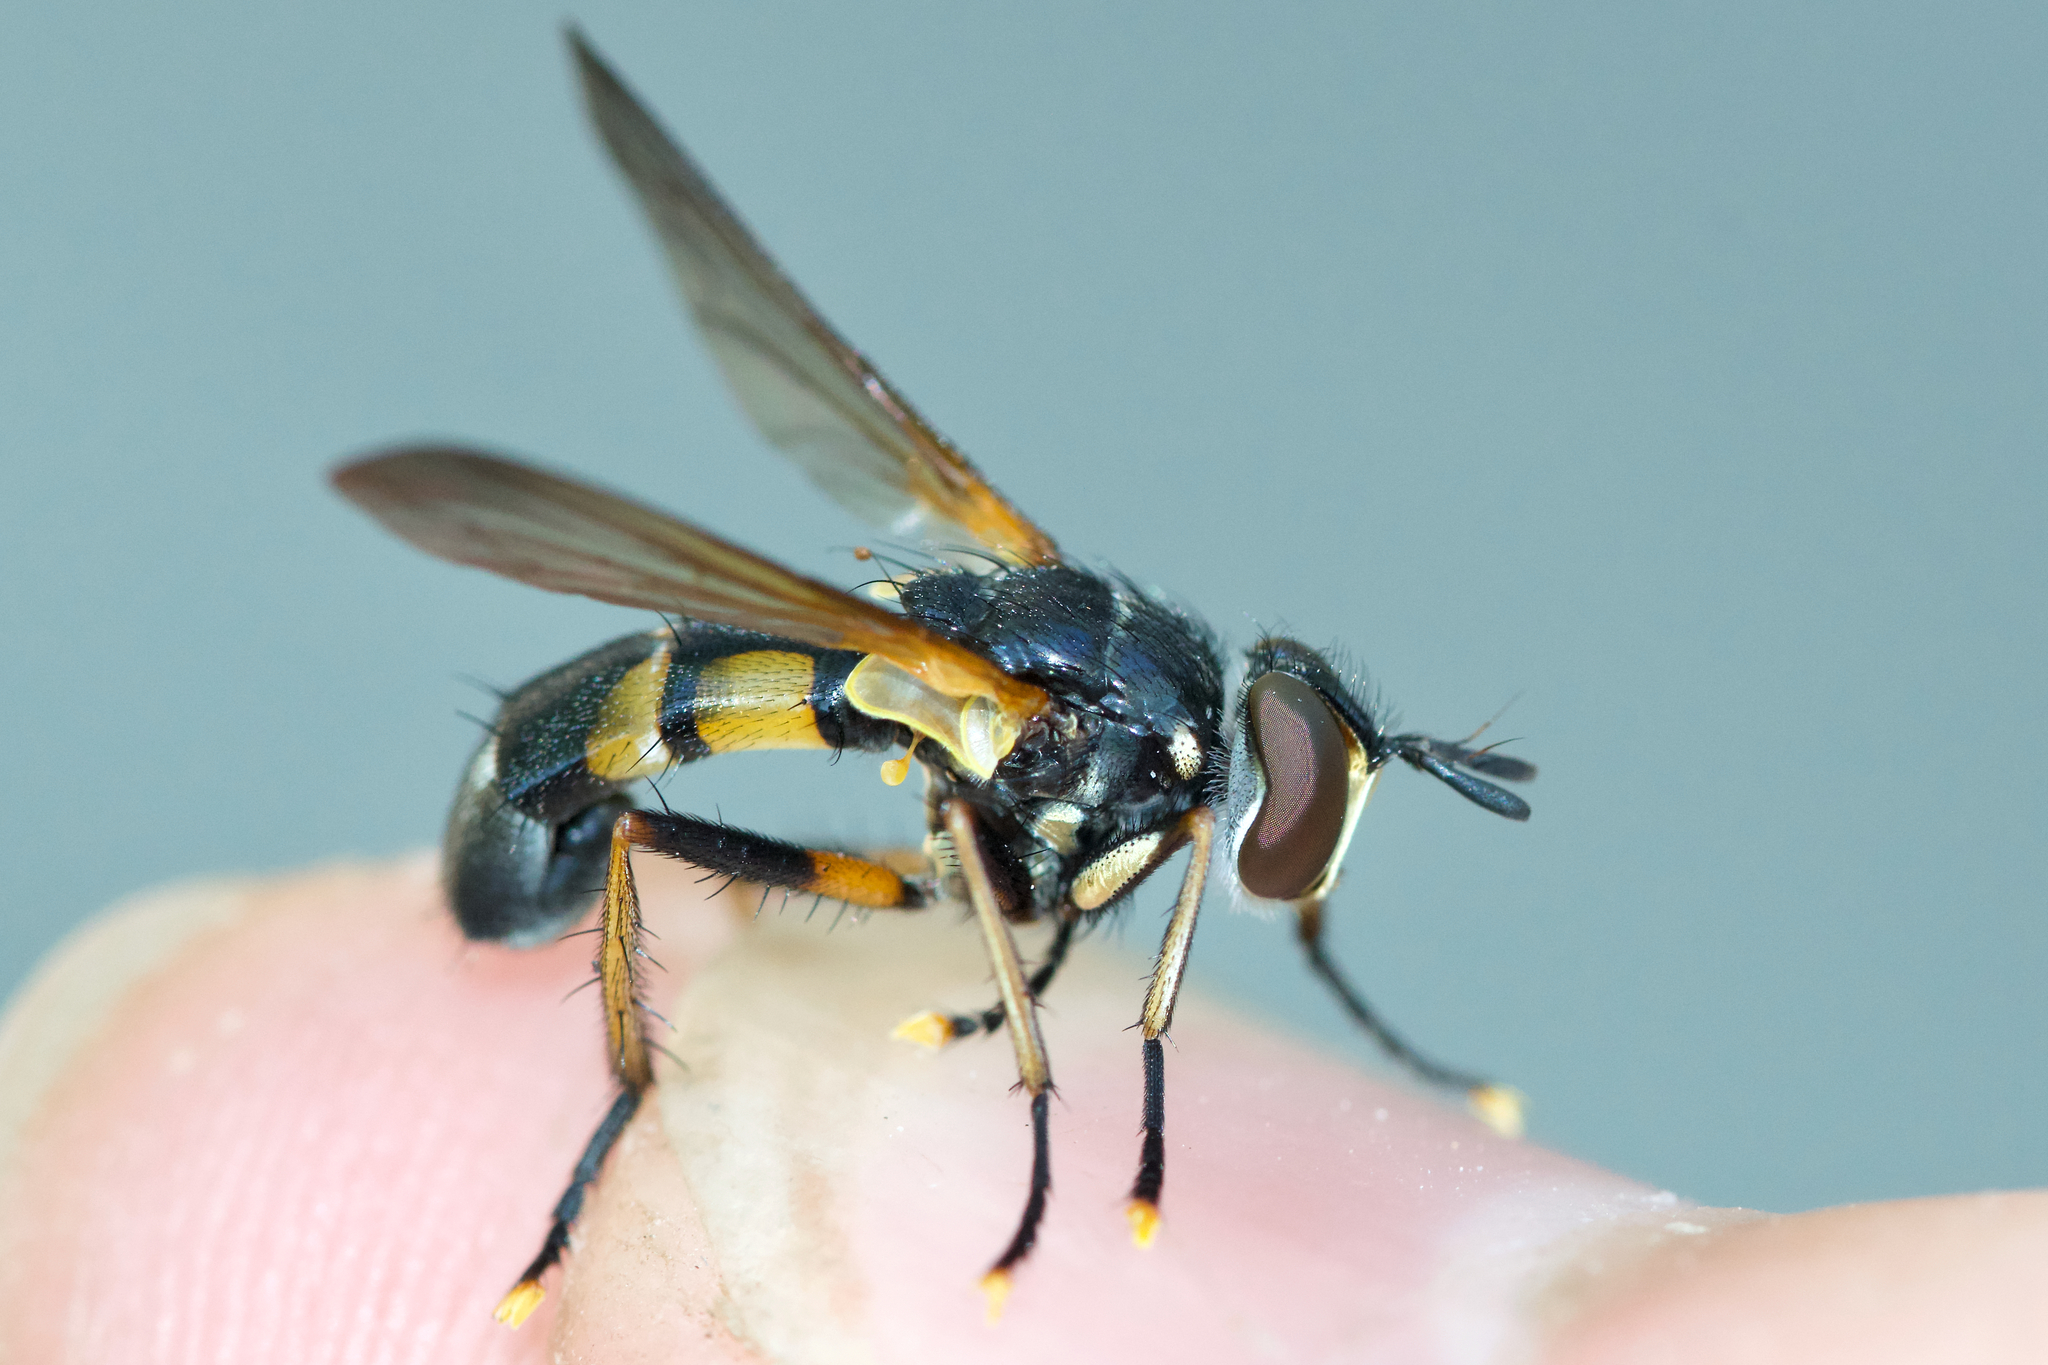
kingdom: Animalia
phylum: Arthropoda
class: Insecta
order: Diptera
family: Tachinidae
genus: Hemyda
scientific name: Hemyda aurata
